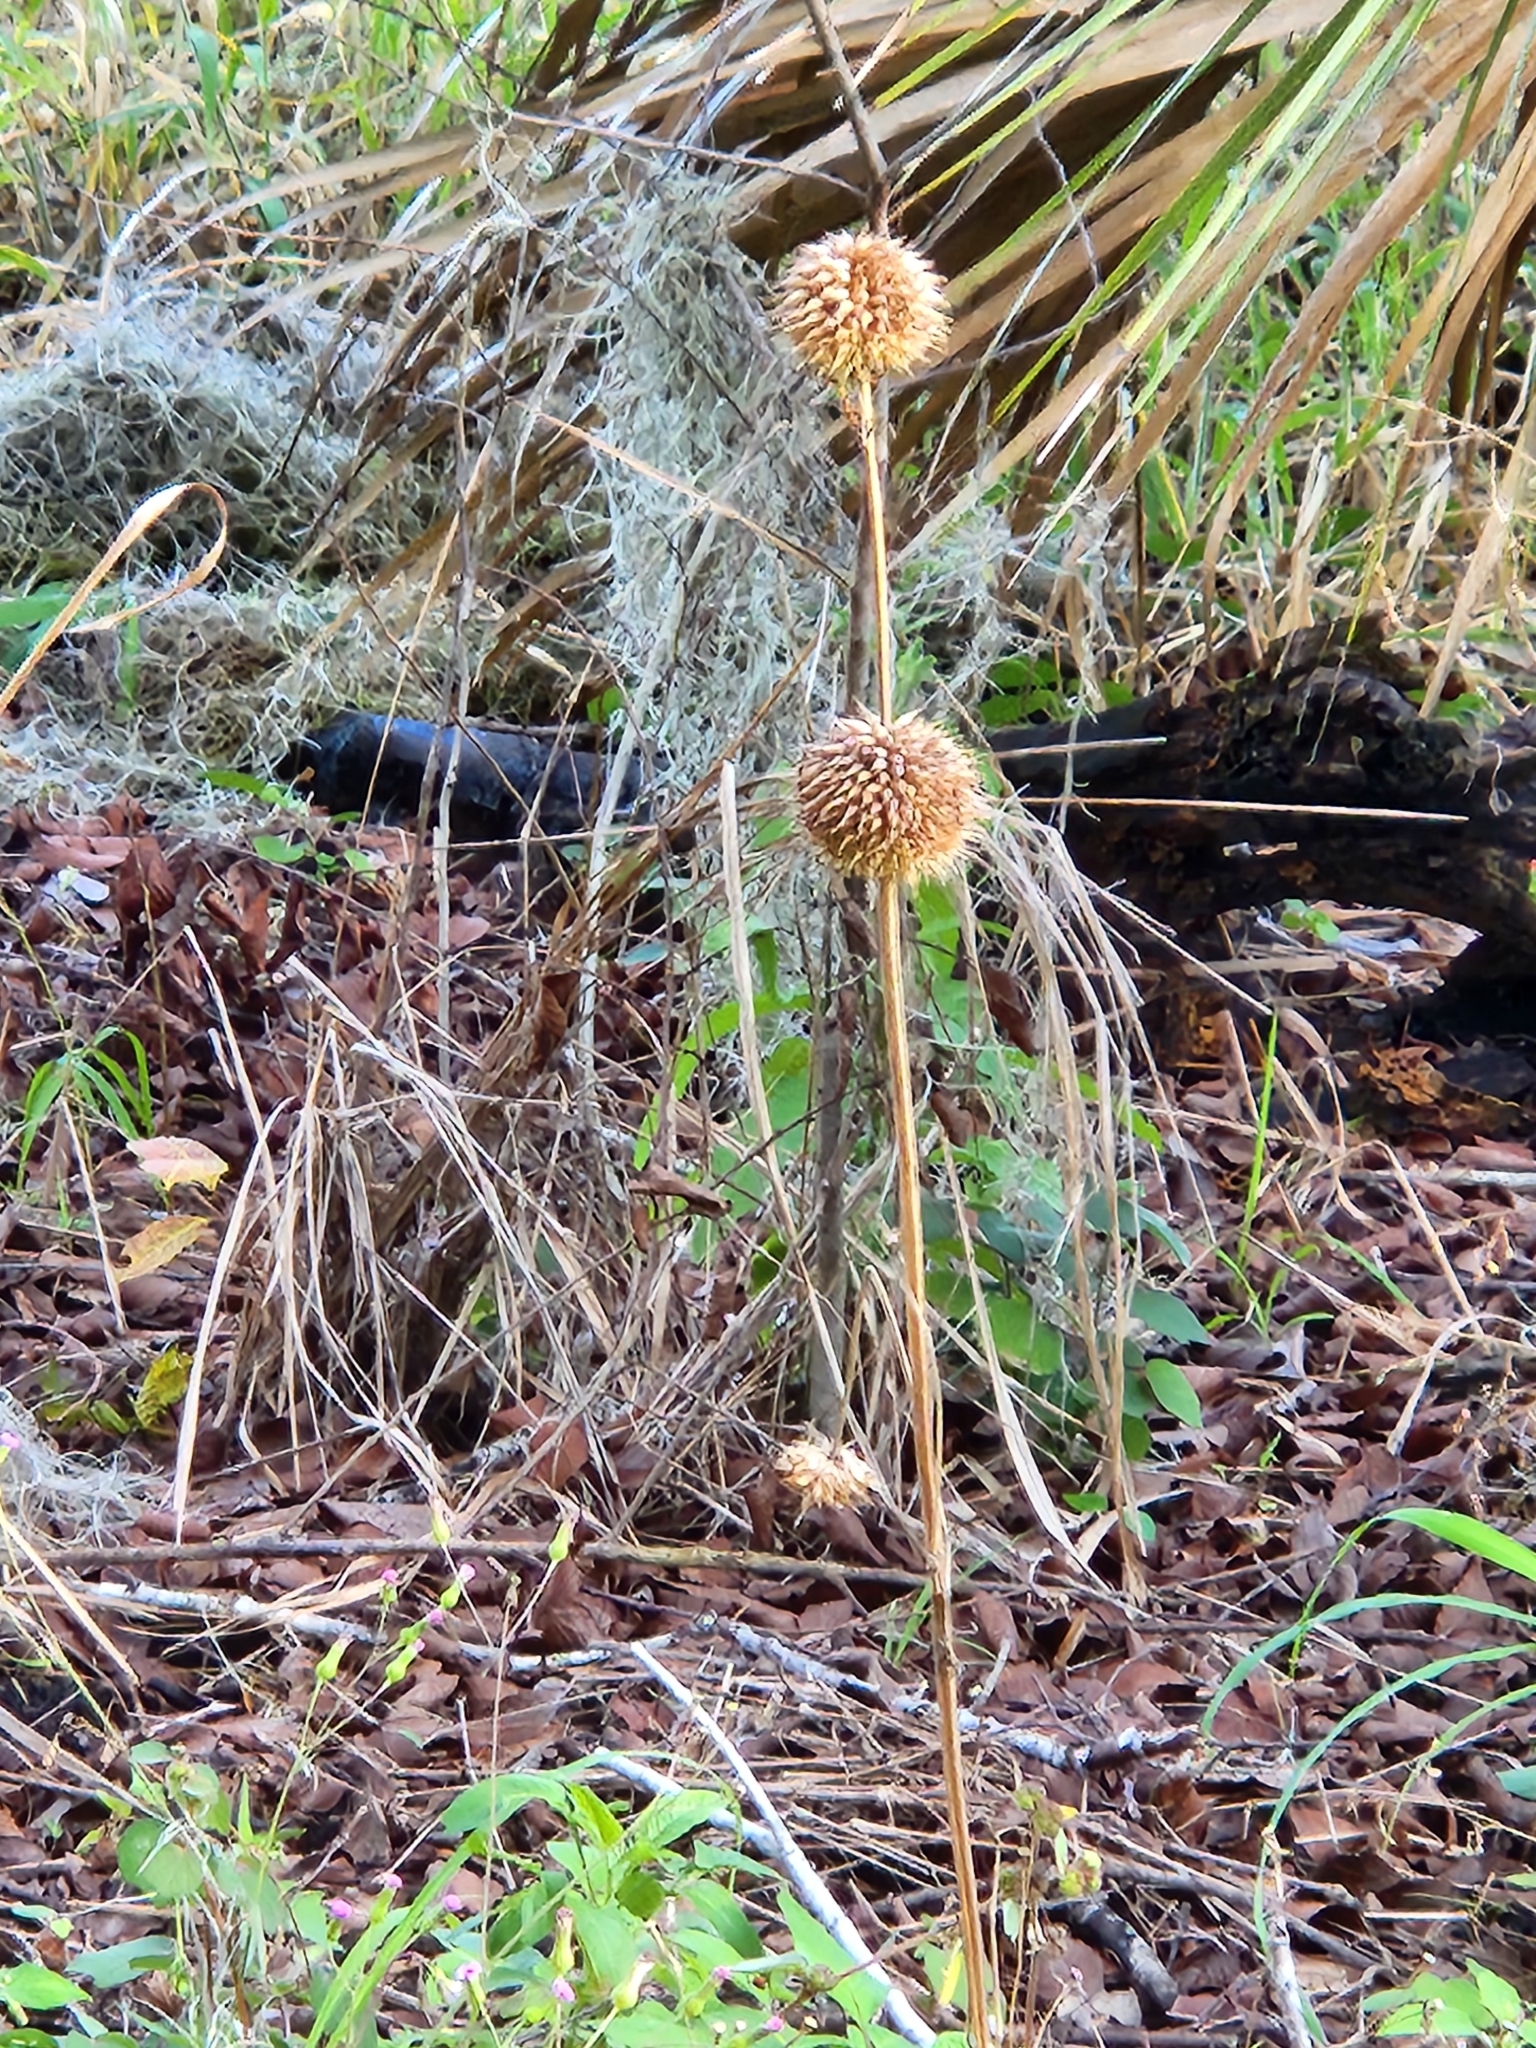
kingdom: Plantae
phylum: Tracheophyta
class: Magnoliopsida
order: Lamiales
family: Lamiaceae
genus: Leonotis
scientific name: Leonotis nepetifolia
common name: Christmas candlestick
